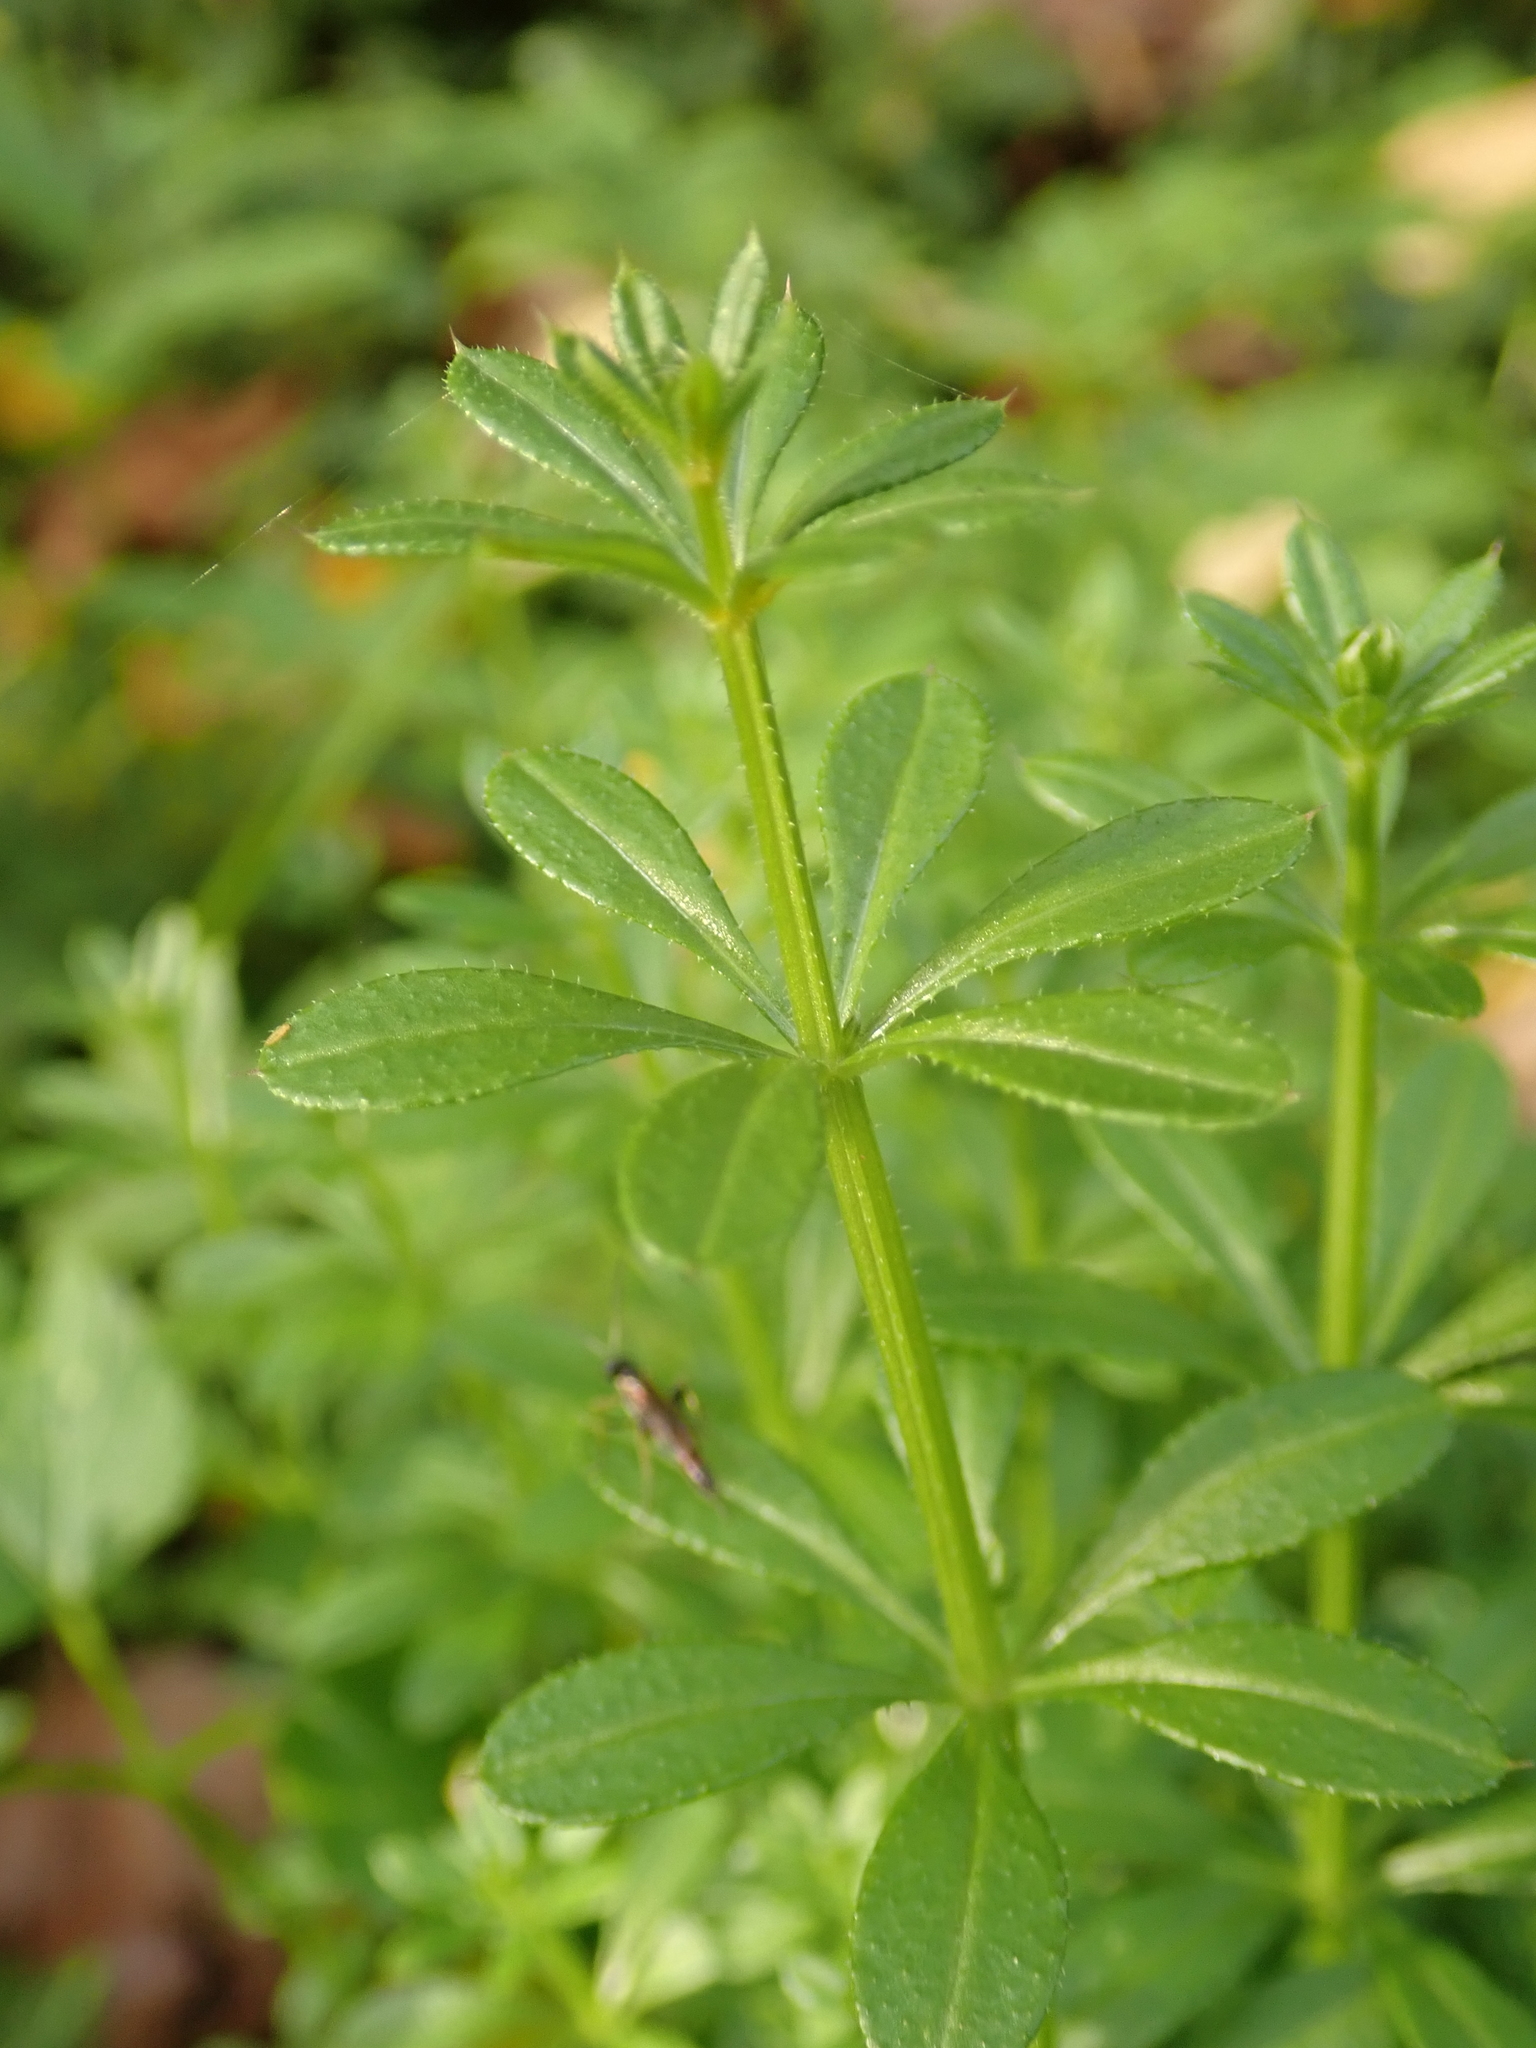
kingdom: Plantae
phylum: Tracheophyta
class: Magnoliopsida
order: Gentianales
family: Rubiaceae
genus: Galium
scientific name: Galium aparine
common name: Cleavers
